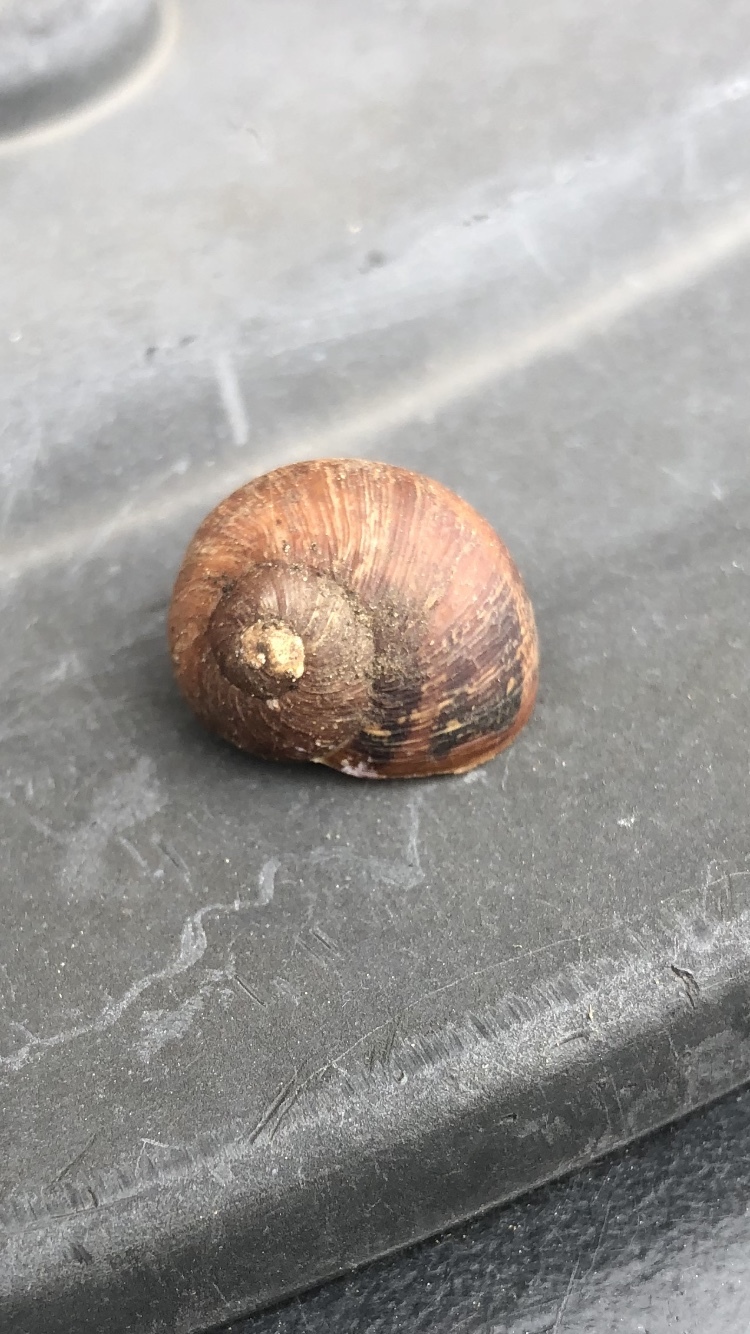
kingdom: Animalia
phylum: Mollusca
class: Gastropoda
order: Stylommatophora
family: Helicidae
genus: Cornu
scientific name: Cornu aspersum
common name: Brown garden snail
